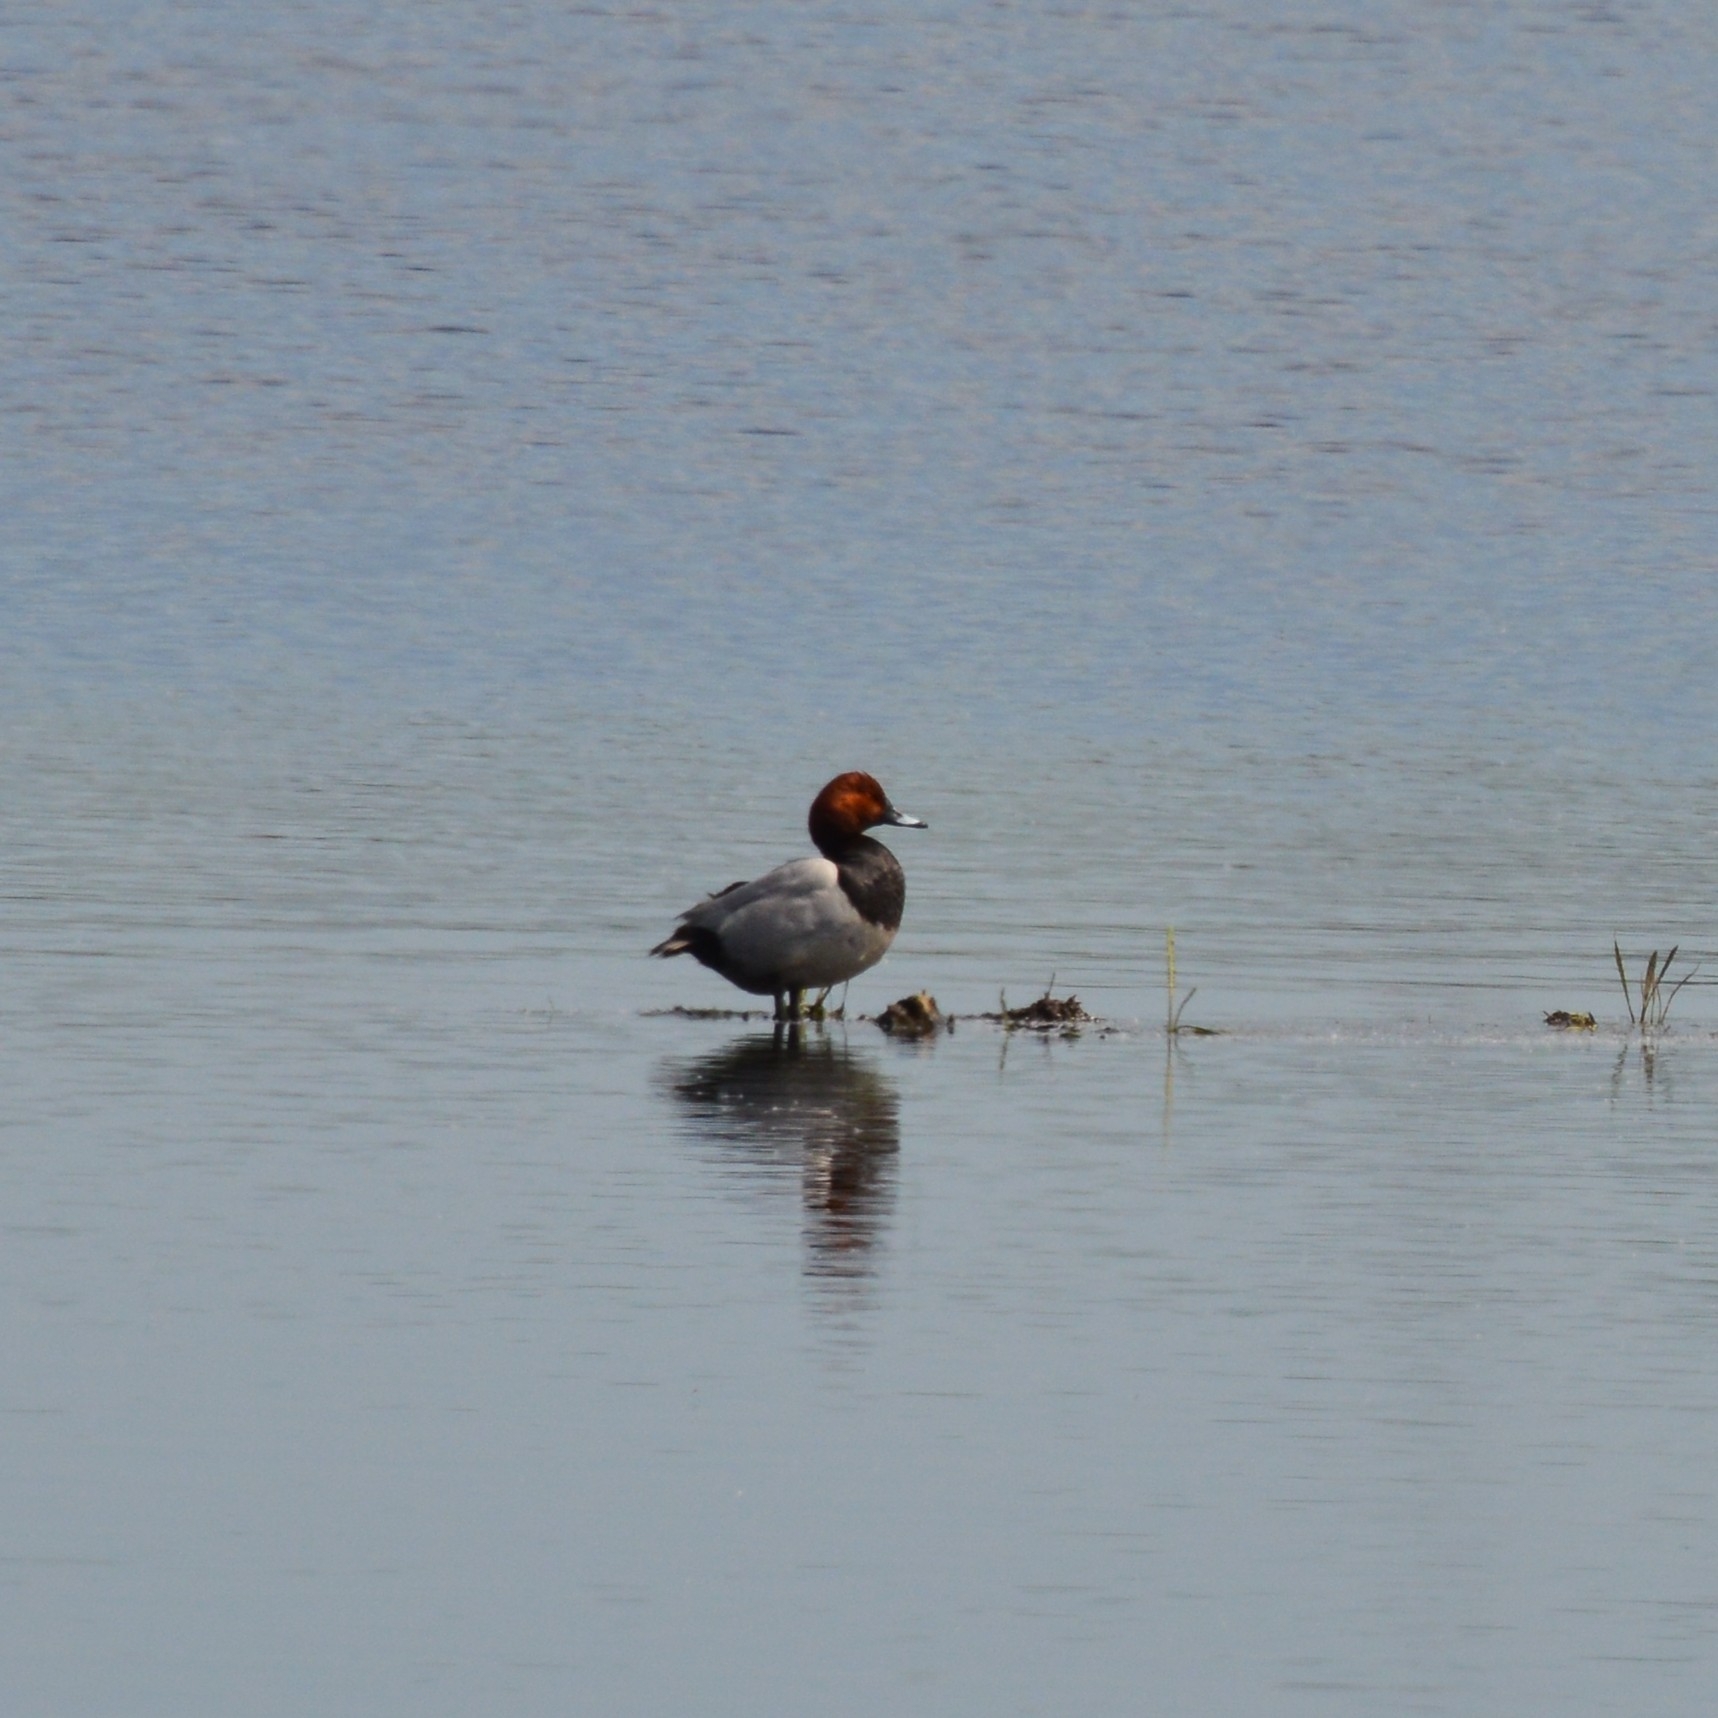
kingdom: Animalia
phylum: Chordata
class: Aves
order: Anseriformes
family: Anatidae
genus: Aythya
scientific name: Aythya ferina
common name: Common pochard
